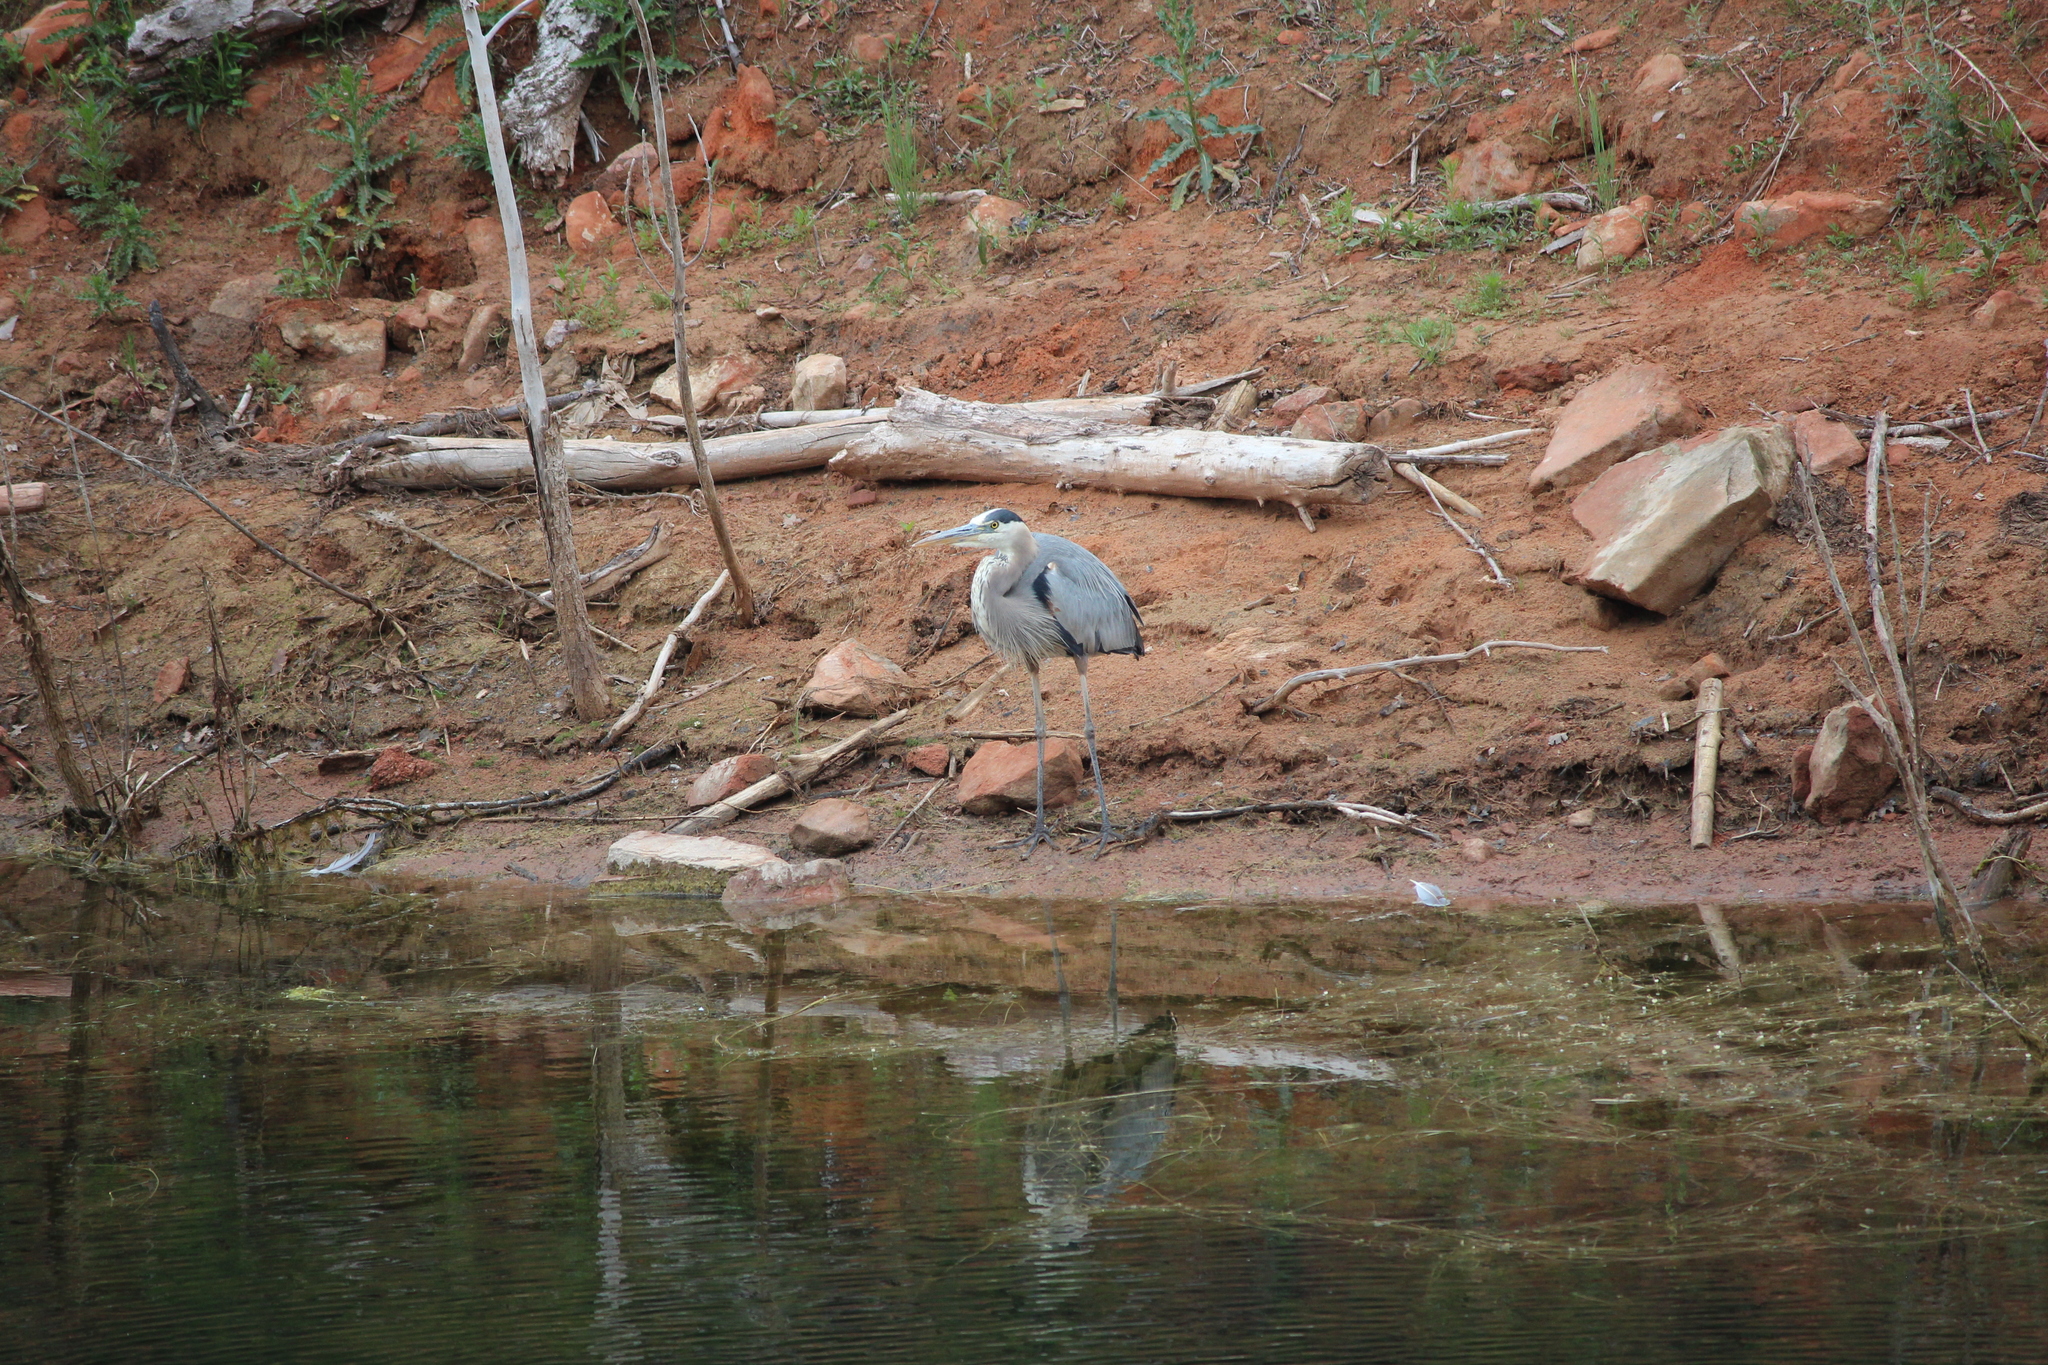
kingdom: Animalia
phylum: Chordata
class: Aves
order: Pelecaniformes
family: Ardeidae
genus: Ardea
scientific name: Ardea herodias
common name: Great blue heron
